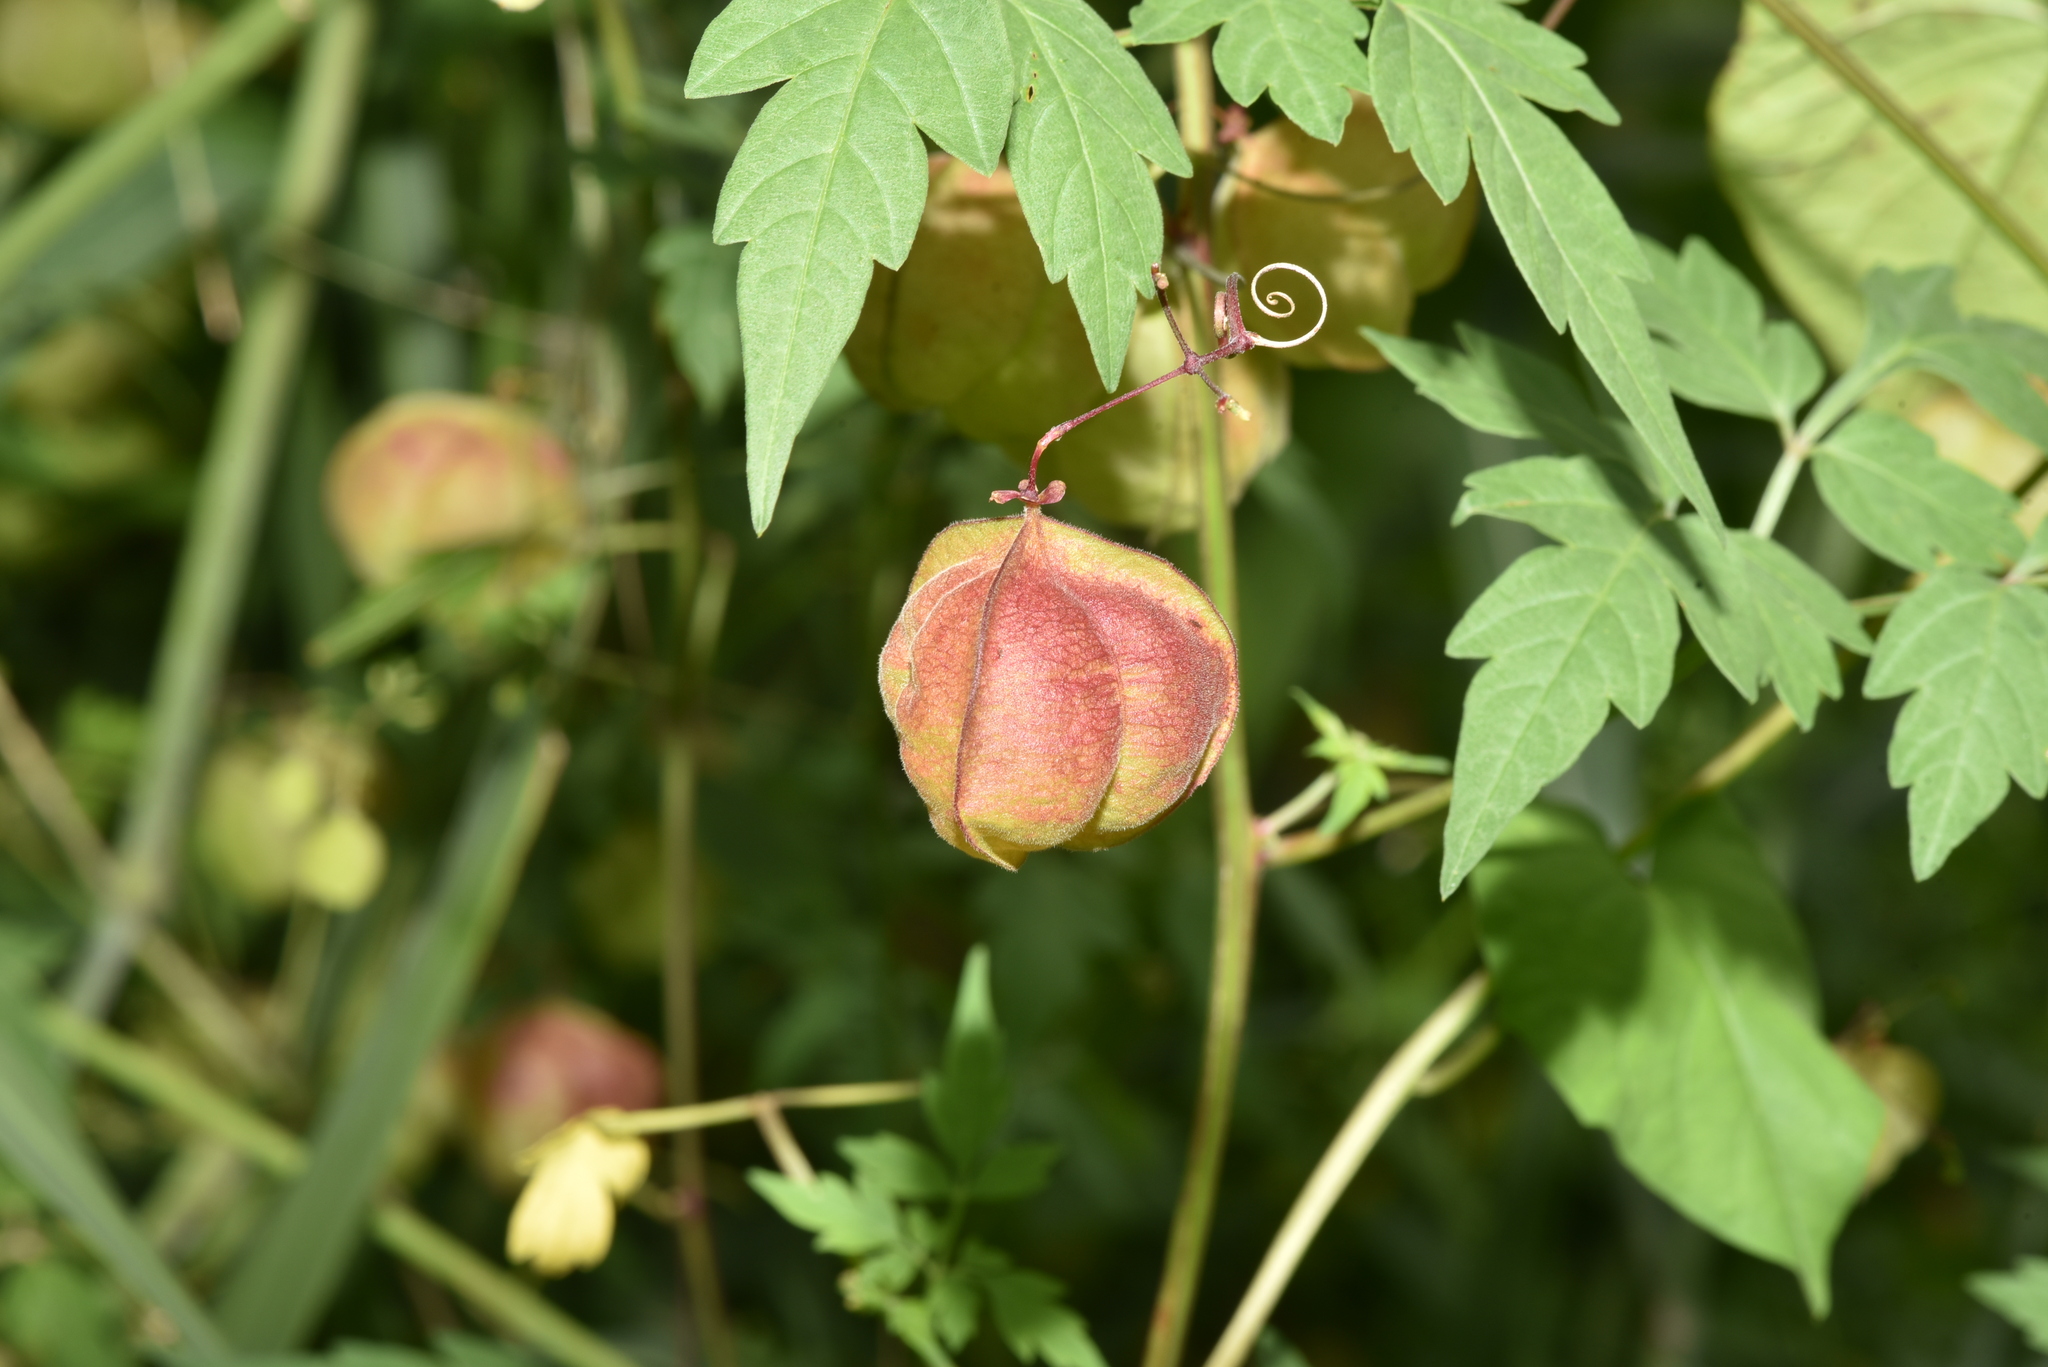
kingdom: Plantae
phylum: Tracheophyta
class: Magnoliopsida
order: Sapindales
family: Sapindaceae
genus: Cardiospermum
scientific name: Cardiospermum halicacabum
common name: Balloon vine
